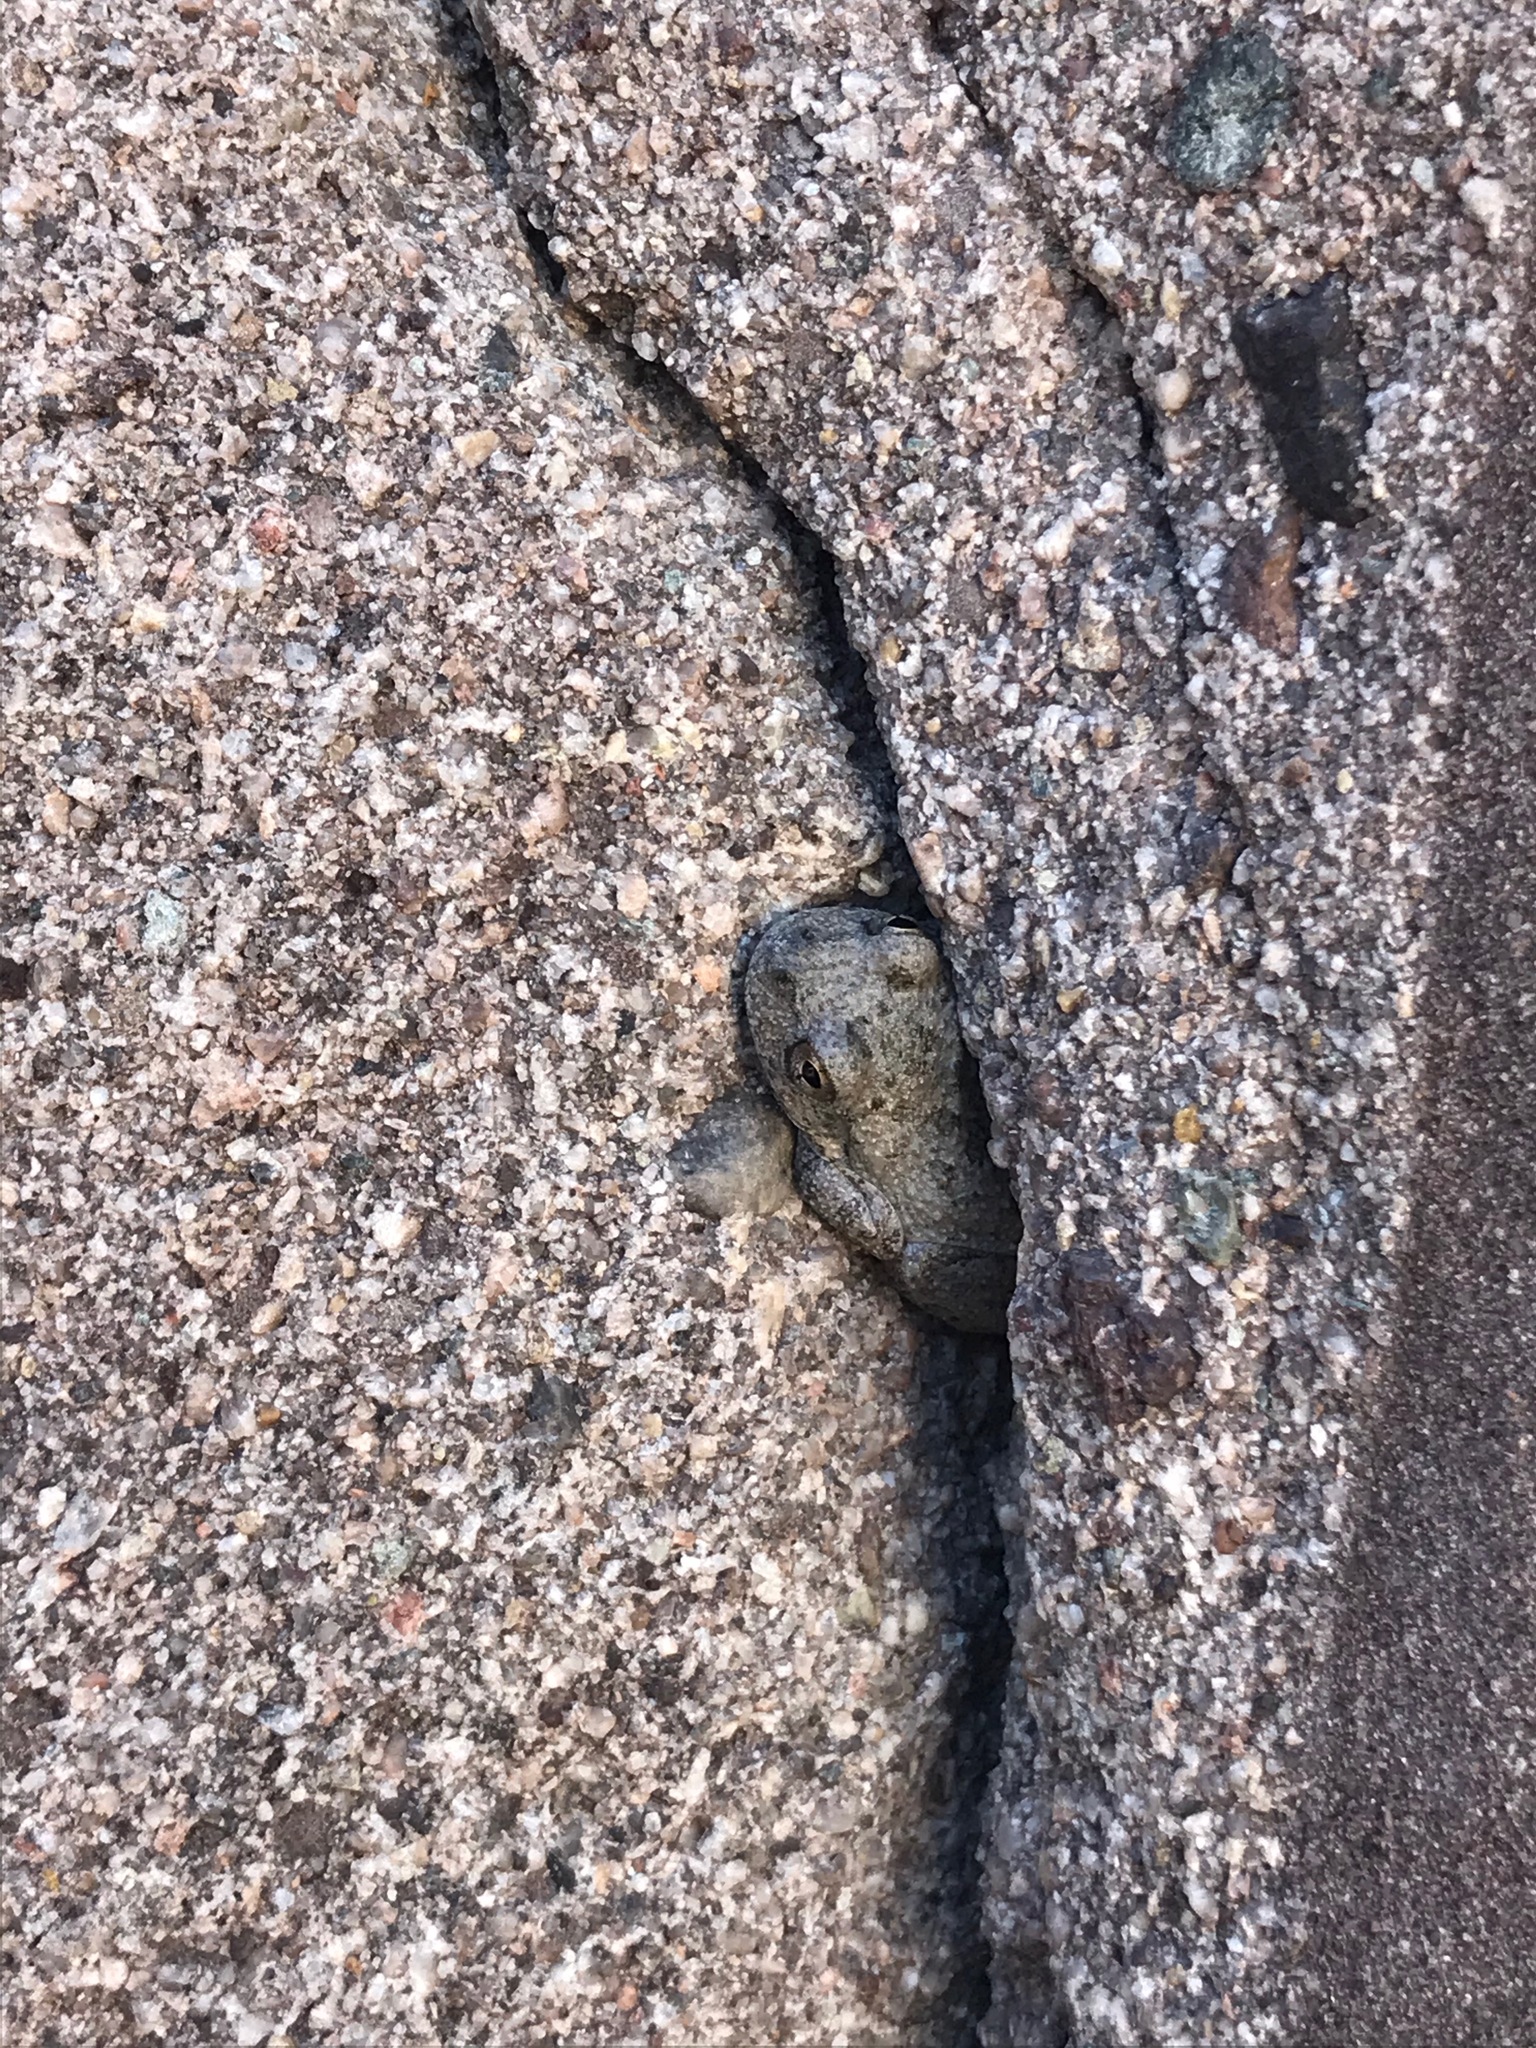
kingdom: Animalia
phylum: Chordata
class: Amphibia
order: Anura
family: Hylidae
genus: Pseudacris
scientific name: Pseudacris cadaverina
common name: California chorus frog
